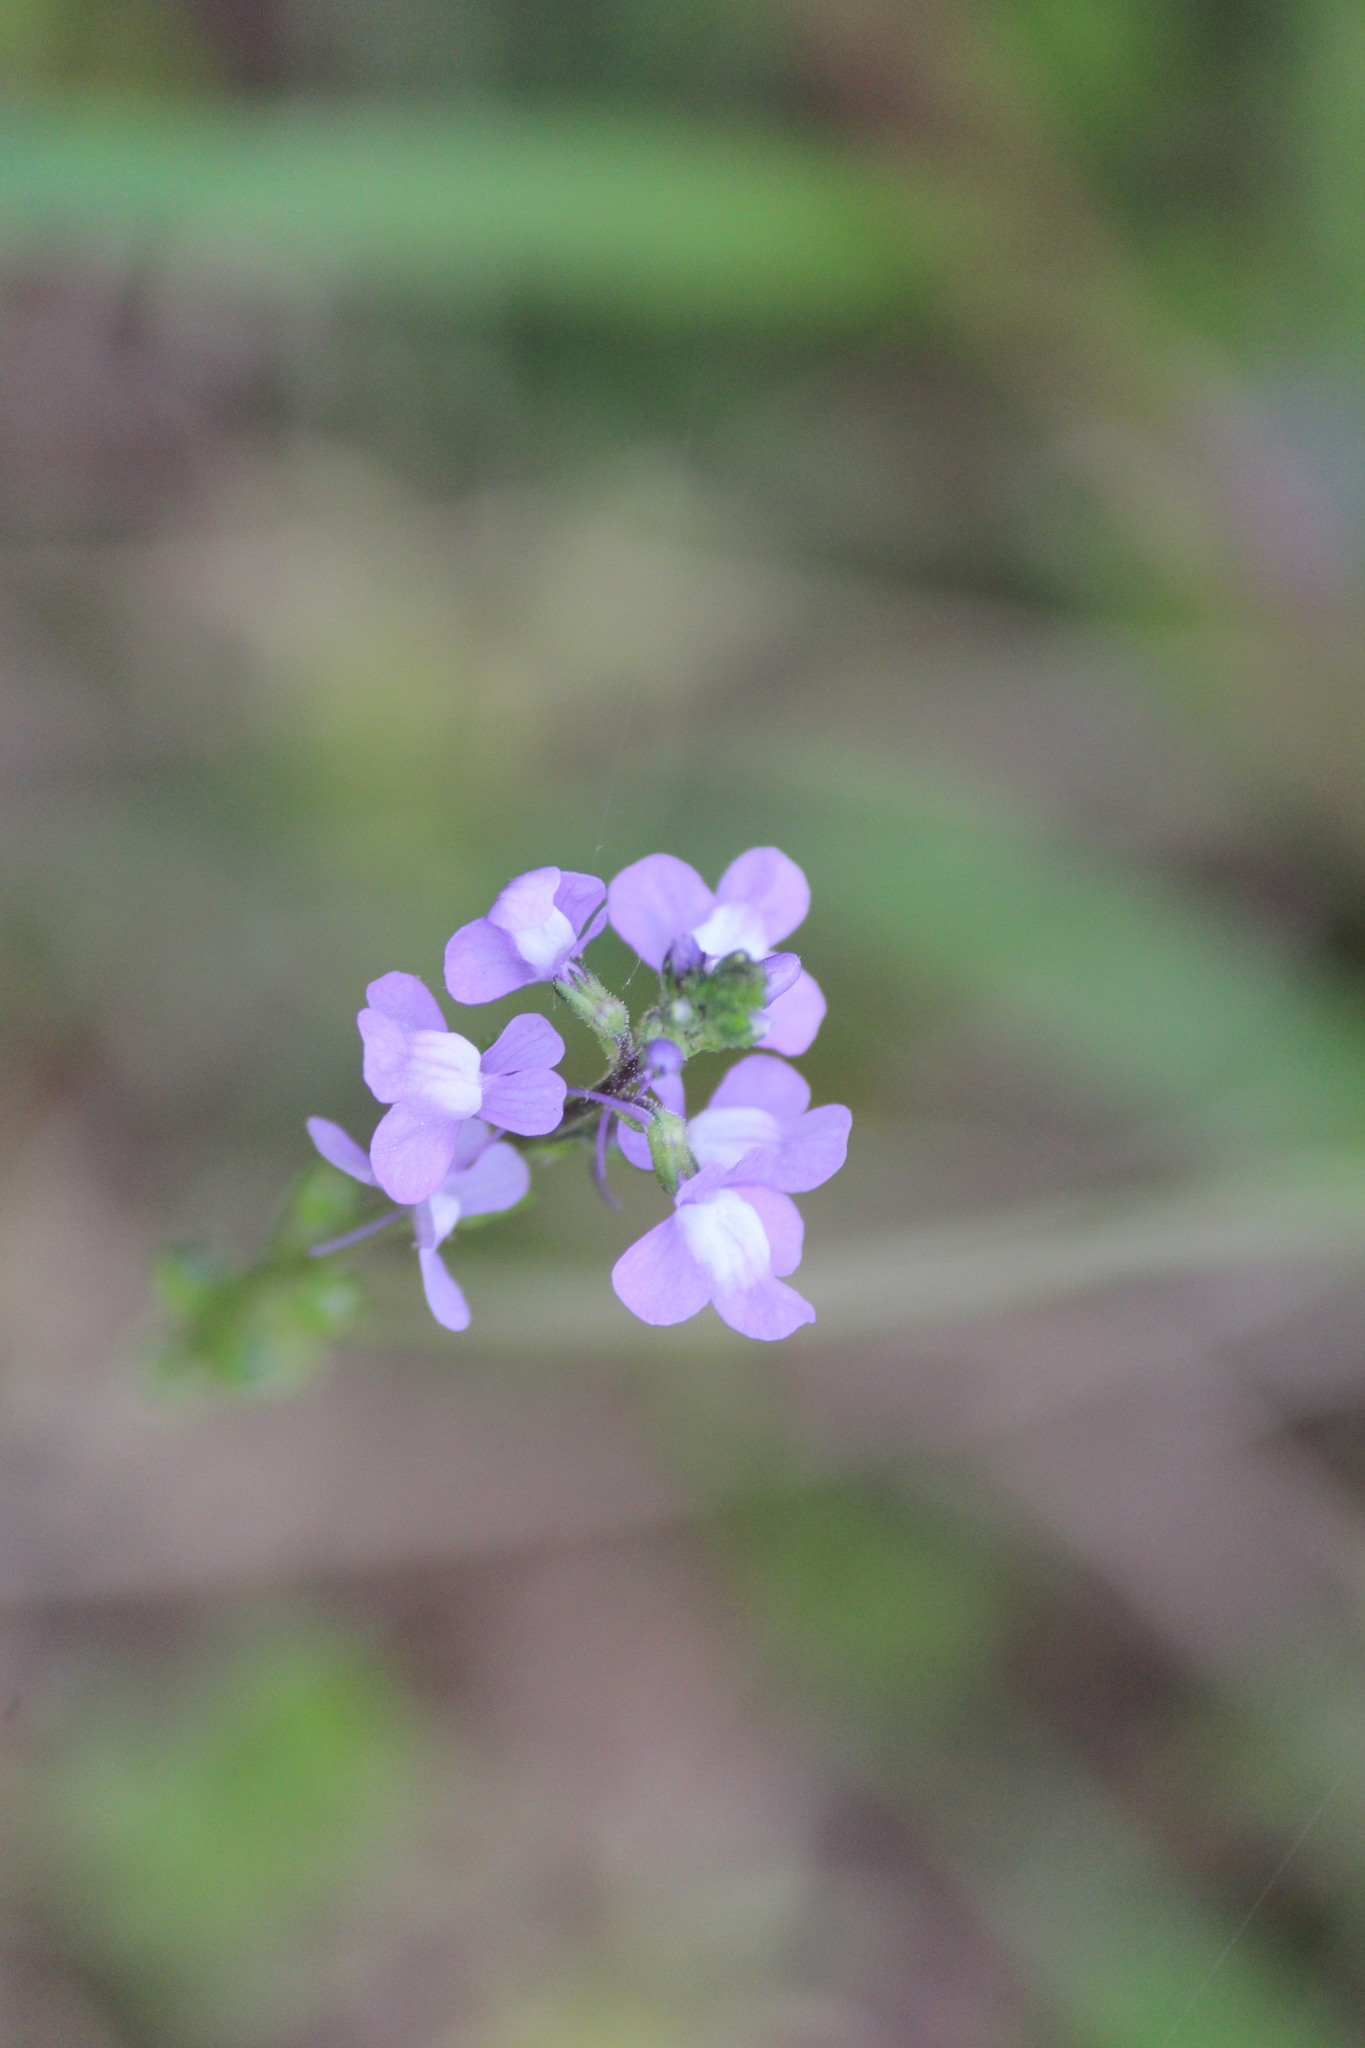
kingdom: Plantae
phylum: Tracheophyta
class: Magnoliopsida
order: Lamiales
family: Plantaginaceae
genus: Nuttallanthus
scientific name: Nuttallanthus canadensis
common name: Blue toadflax
